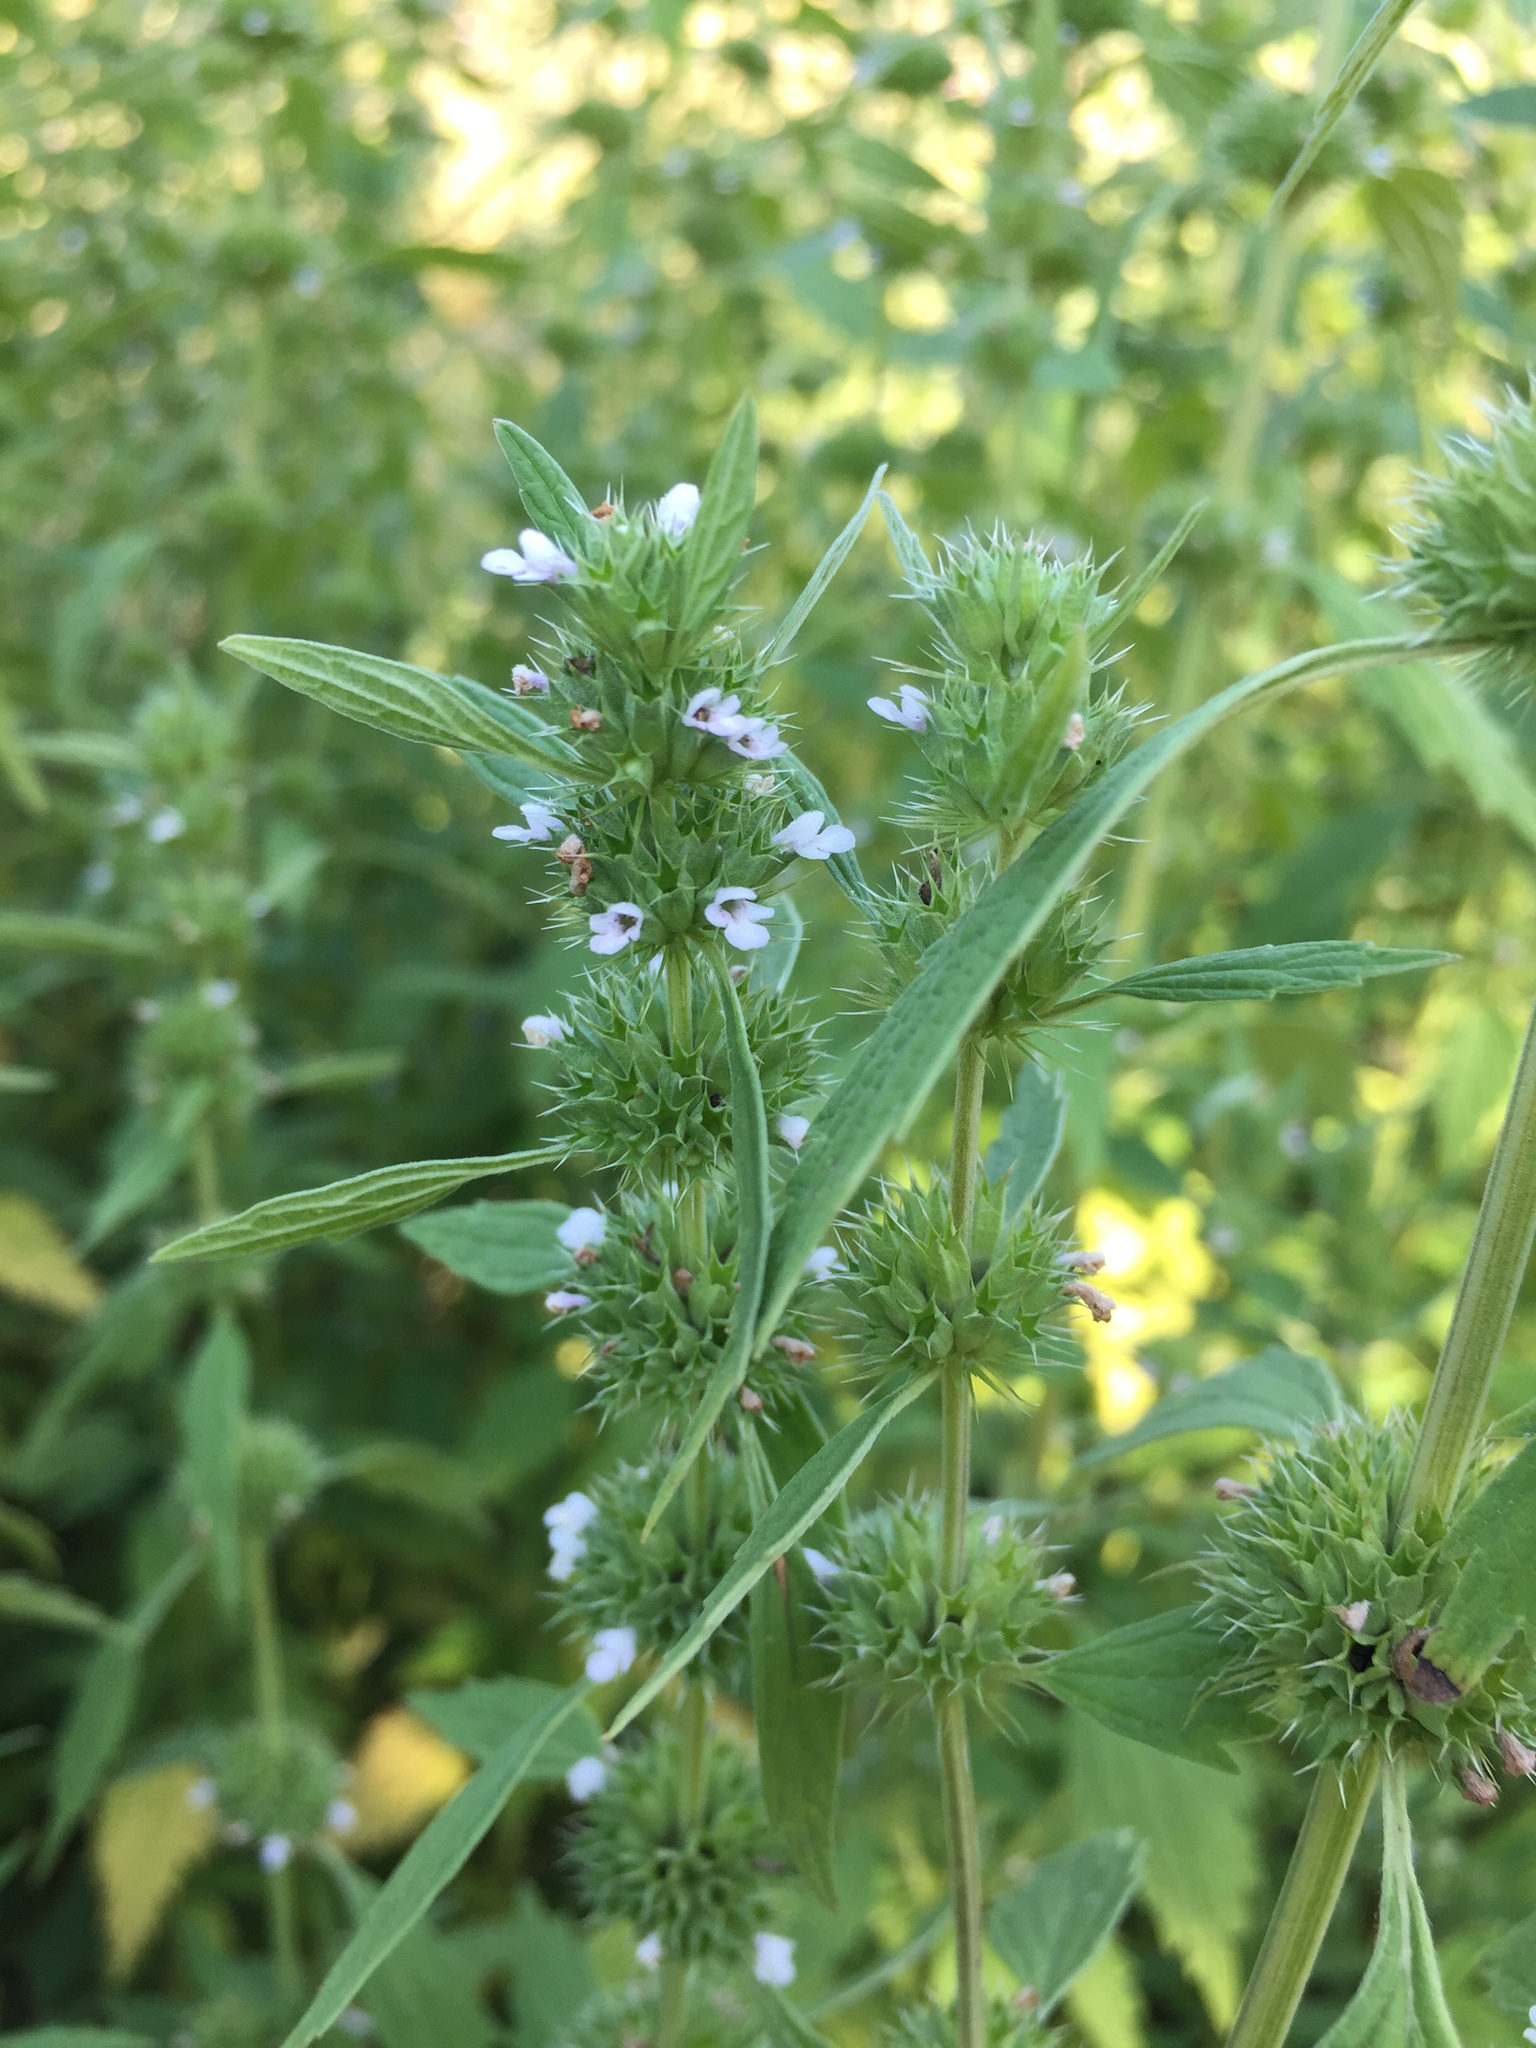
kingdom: Plantae
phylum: Tracheophyta
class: Magnoliopsida
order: Lamiales
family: Lamiaceae
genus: Chaiturus
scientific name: Chaiturus marrubiastrum
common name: Lion's tail
